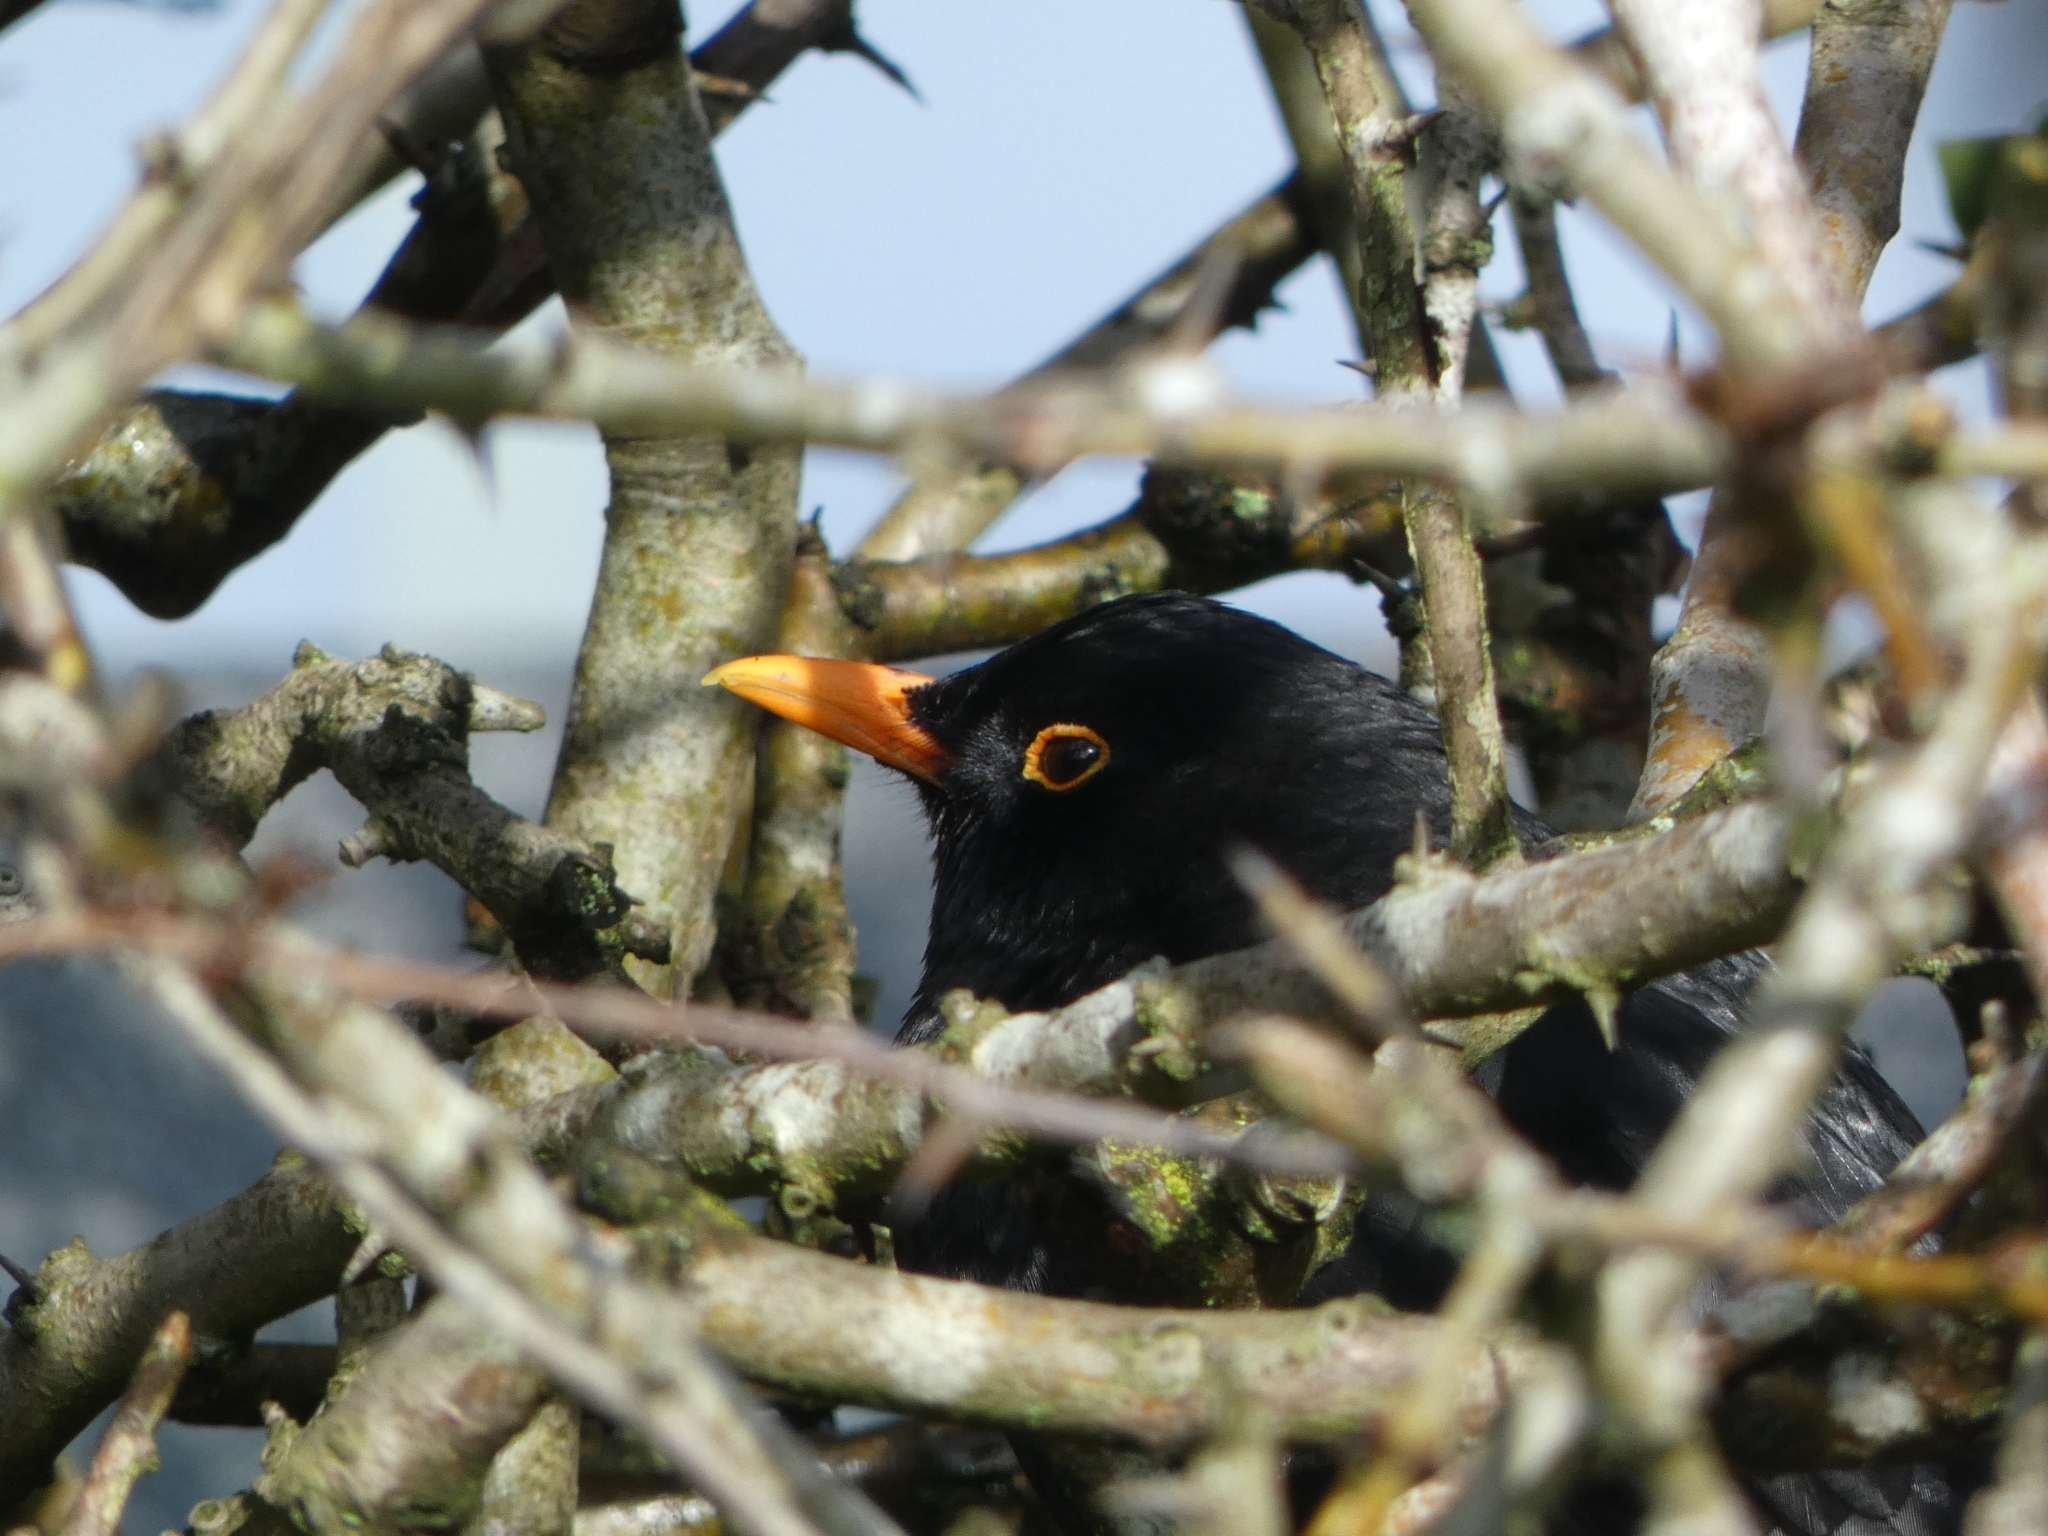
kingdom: Animalia
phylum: Chordata
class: Aves
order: Passeriformes
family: Turdidae
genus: Turdus
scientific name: Turdus merula
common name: Common blackbird
